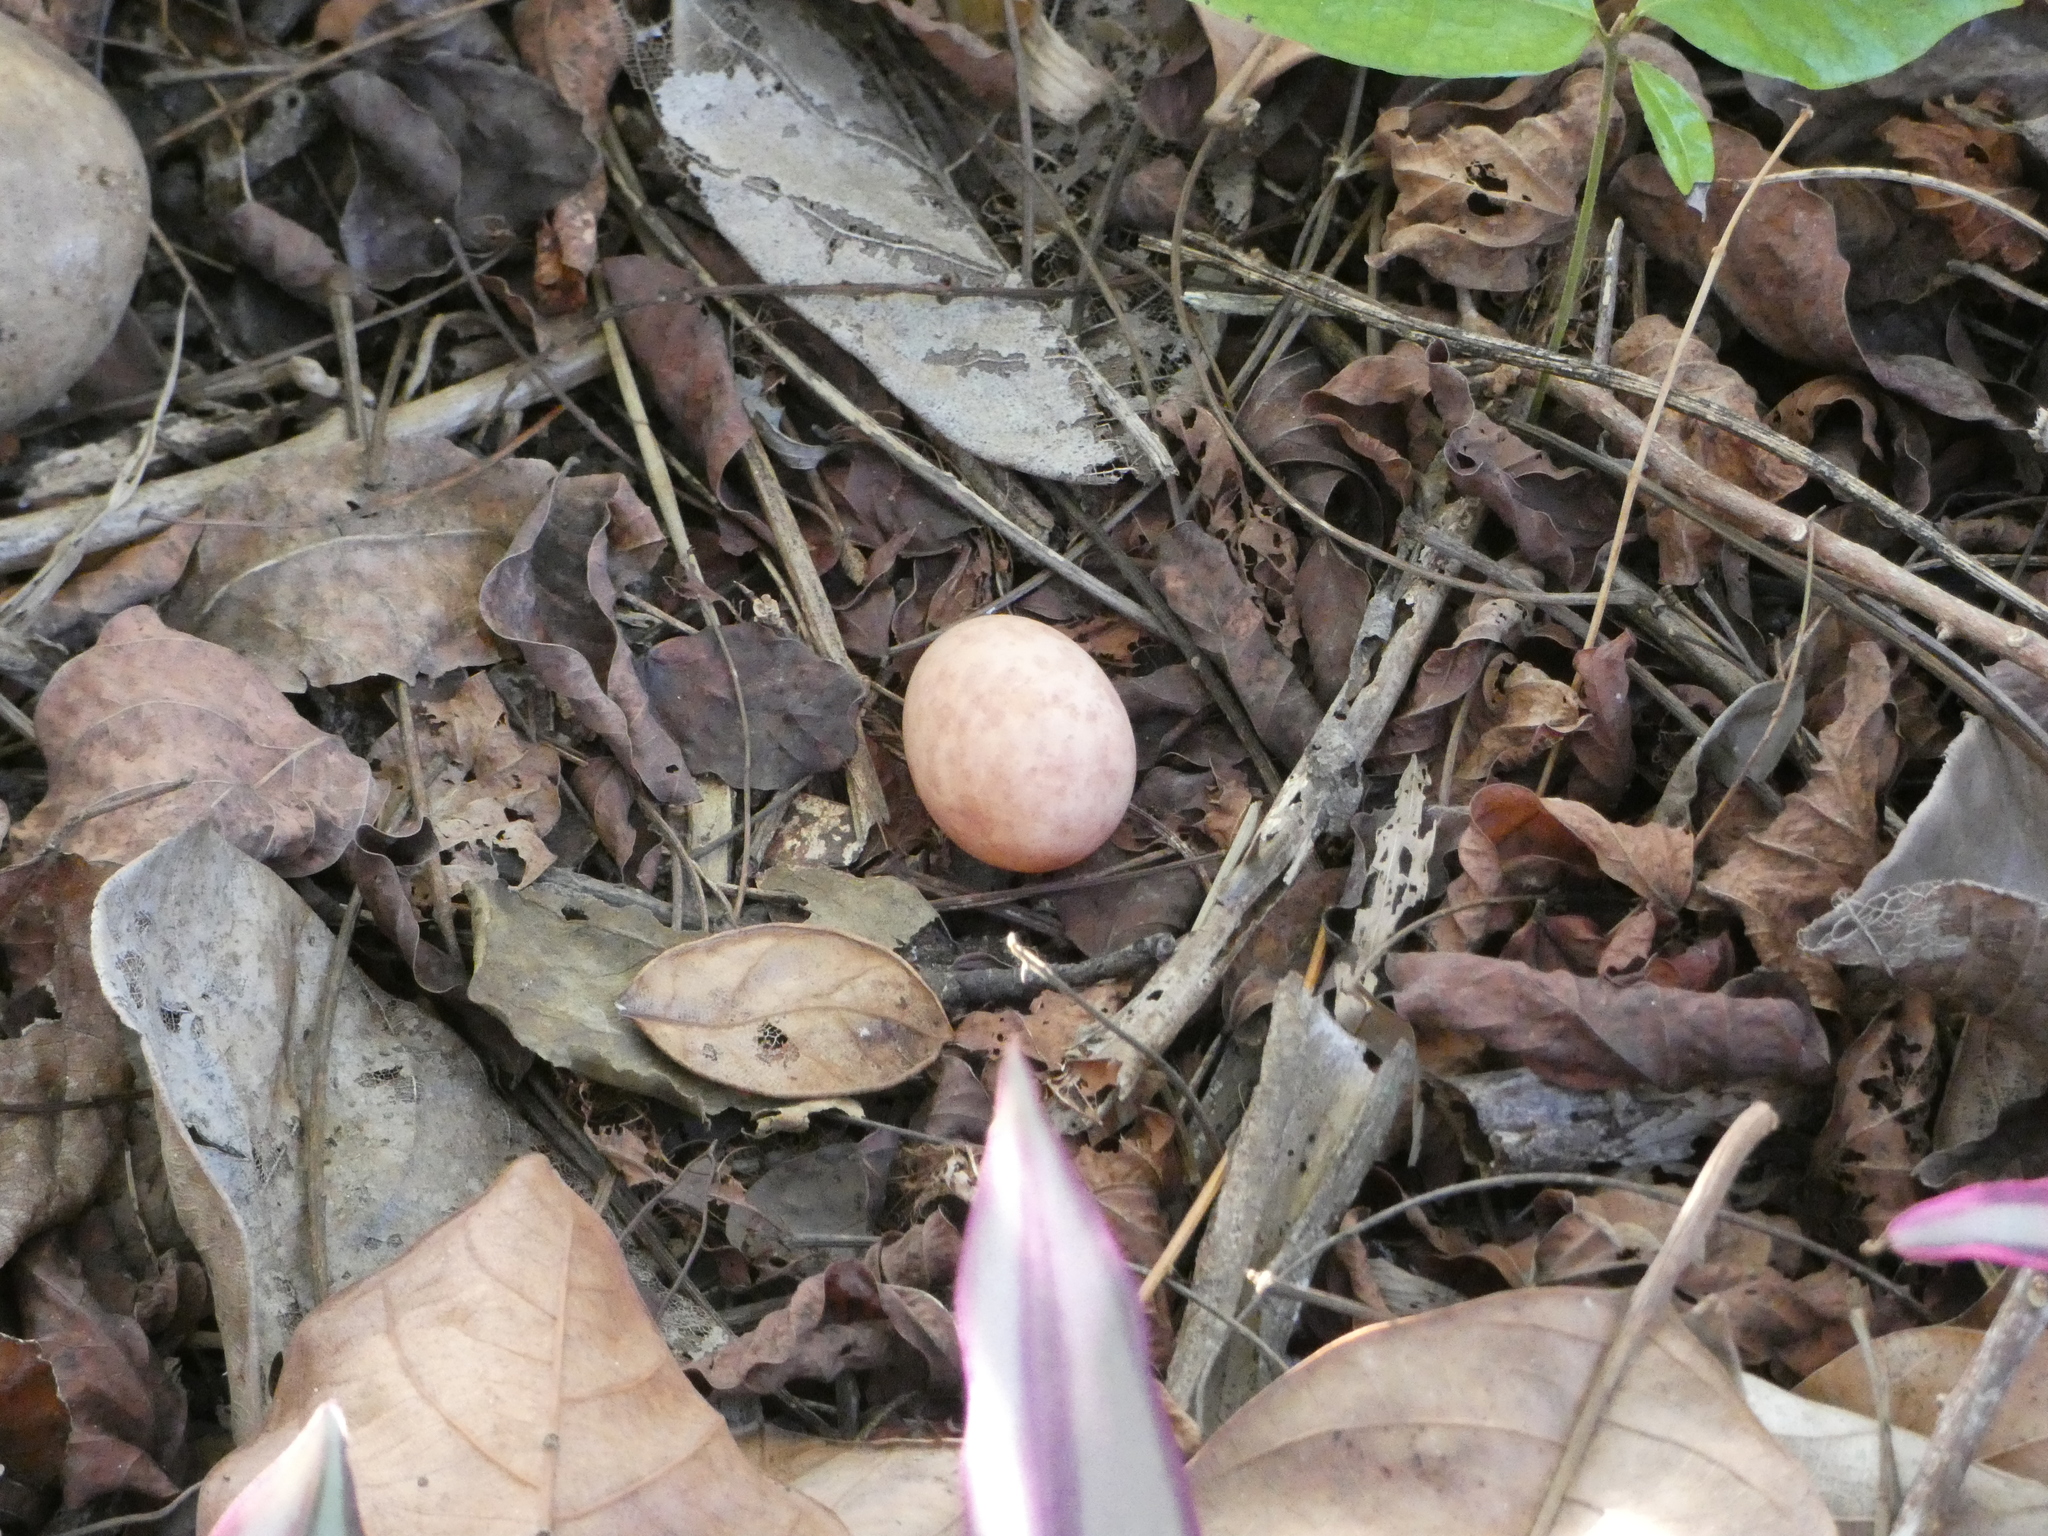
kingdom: Animalia
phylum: Chordata
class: Aves
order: Caprimulgiformes
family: Caprimulgidae
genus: Nyctidromus
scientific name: Nyctidromus albicollis
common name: Pauraque
